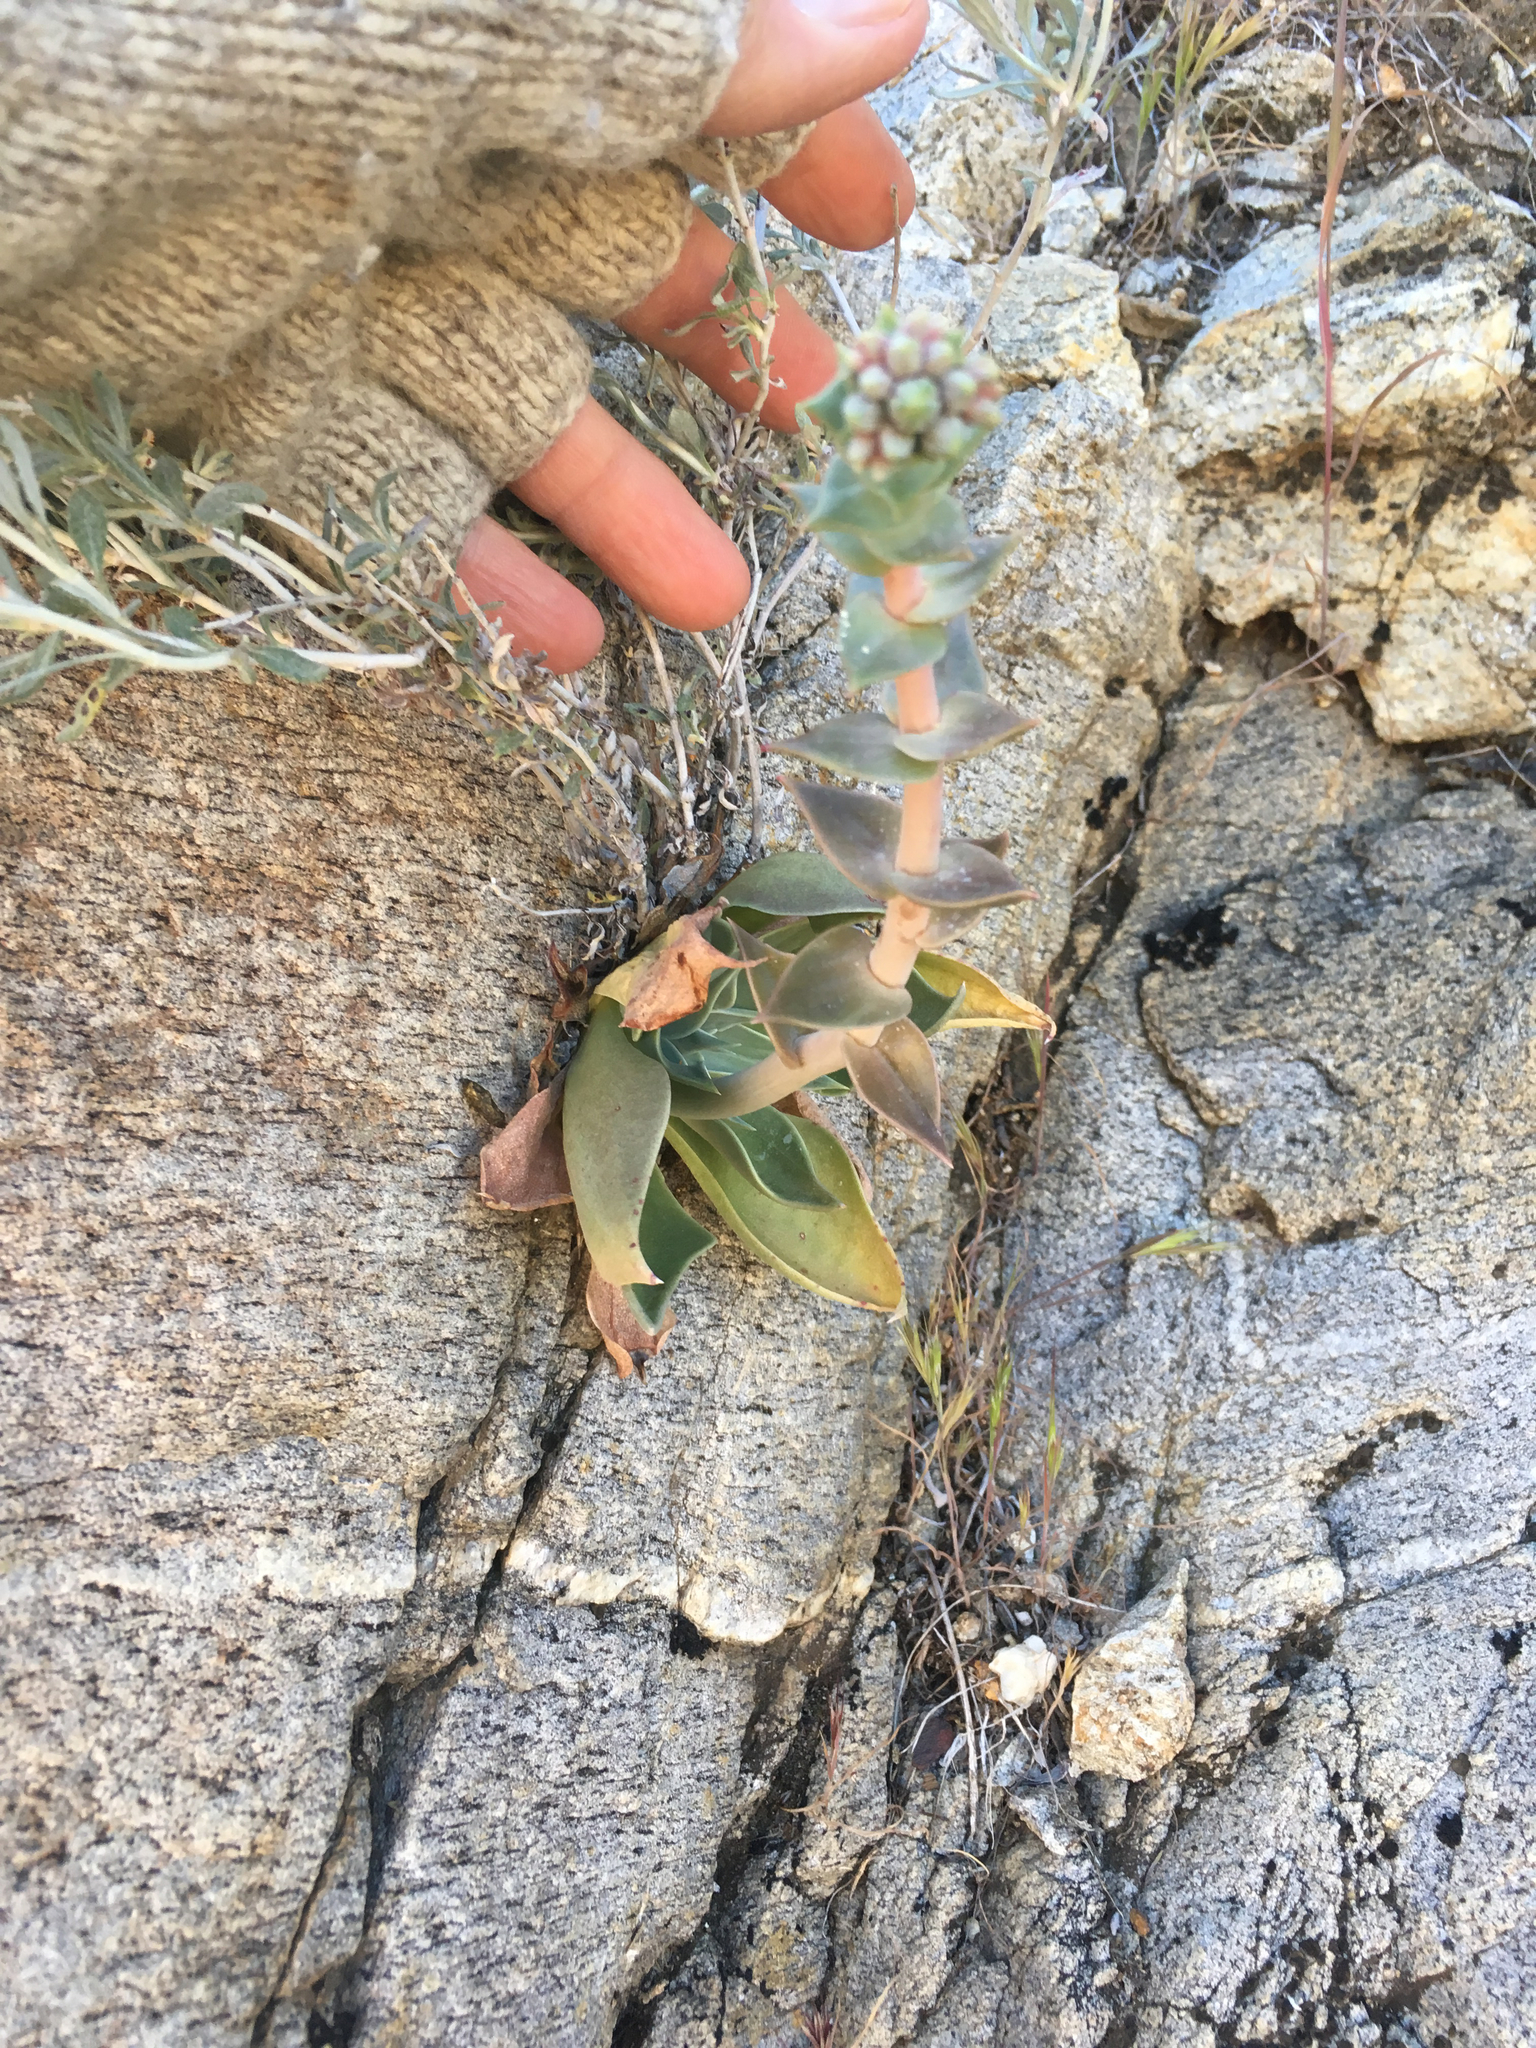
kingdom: Plantae
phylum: Tracheophyta
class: Magnoliopsida
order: Saxifragales
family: Crassulaceae
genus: Dudleya
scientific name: Dudleya arizonica
